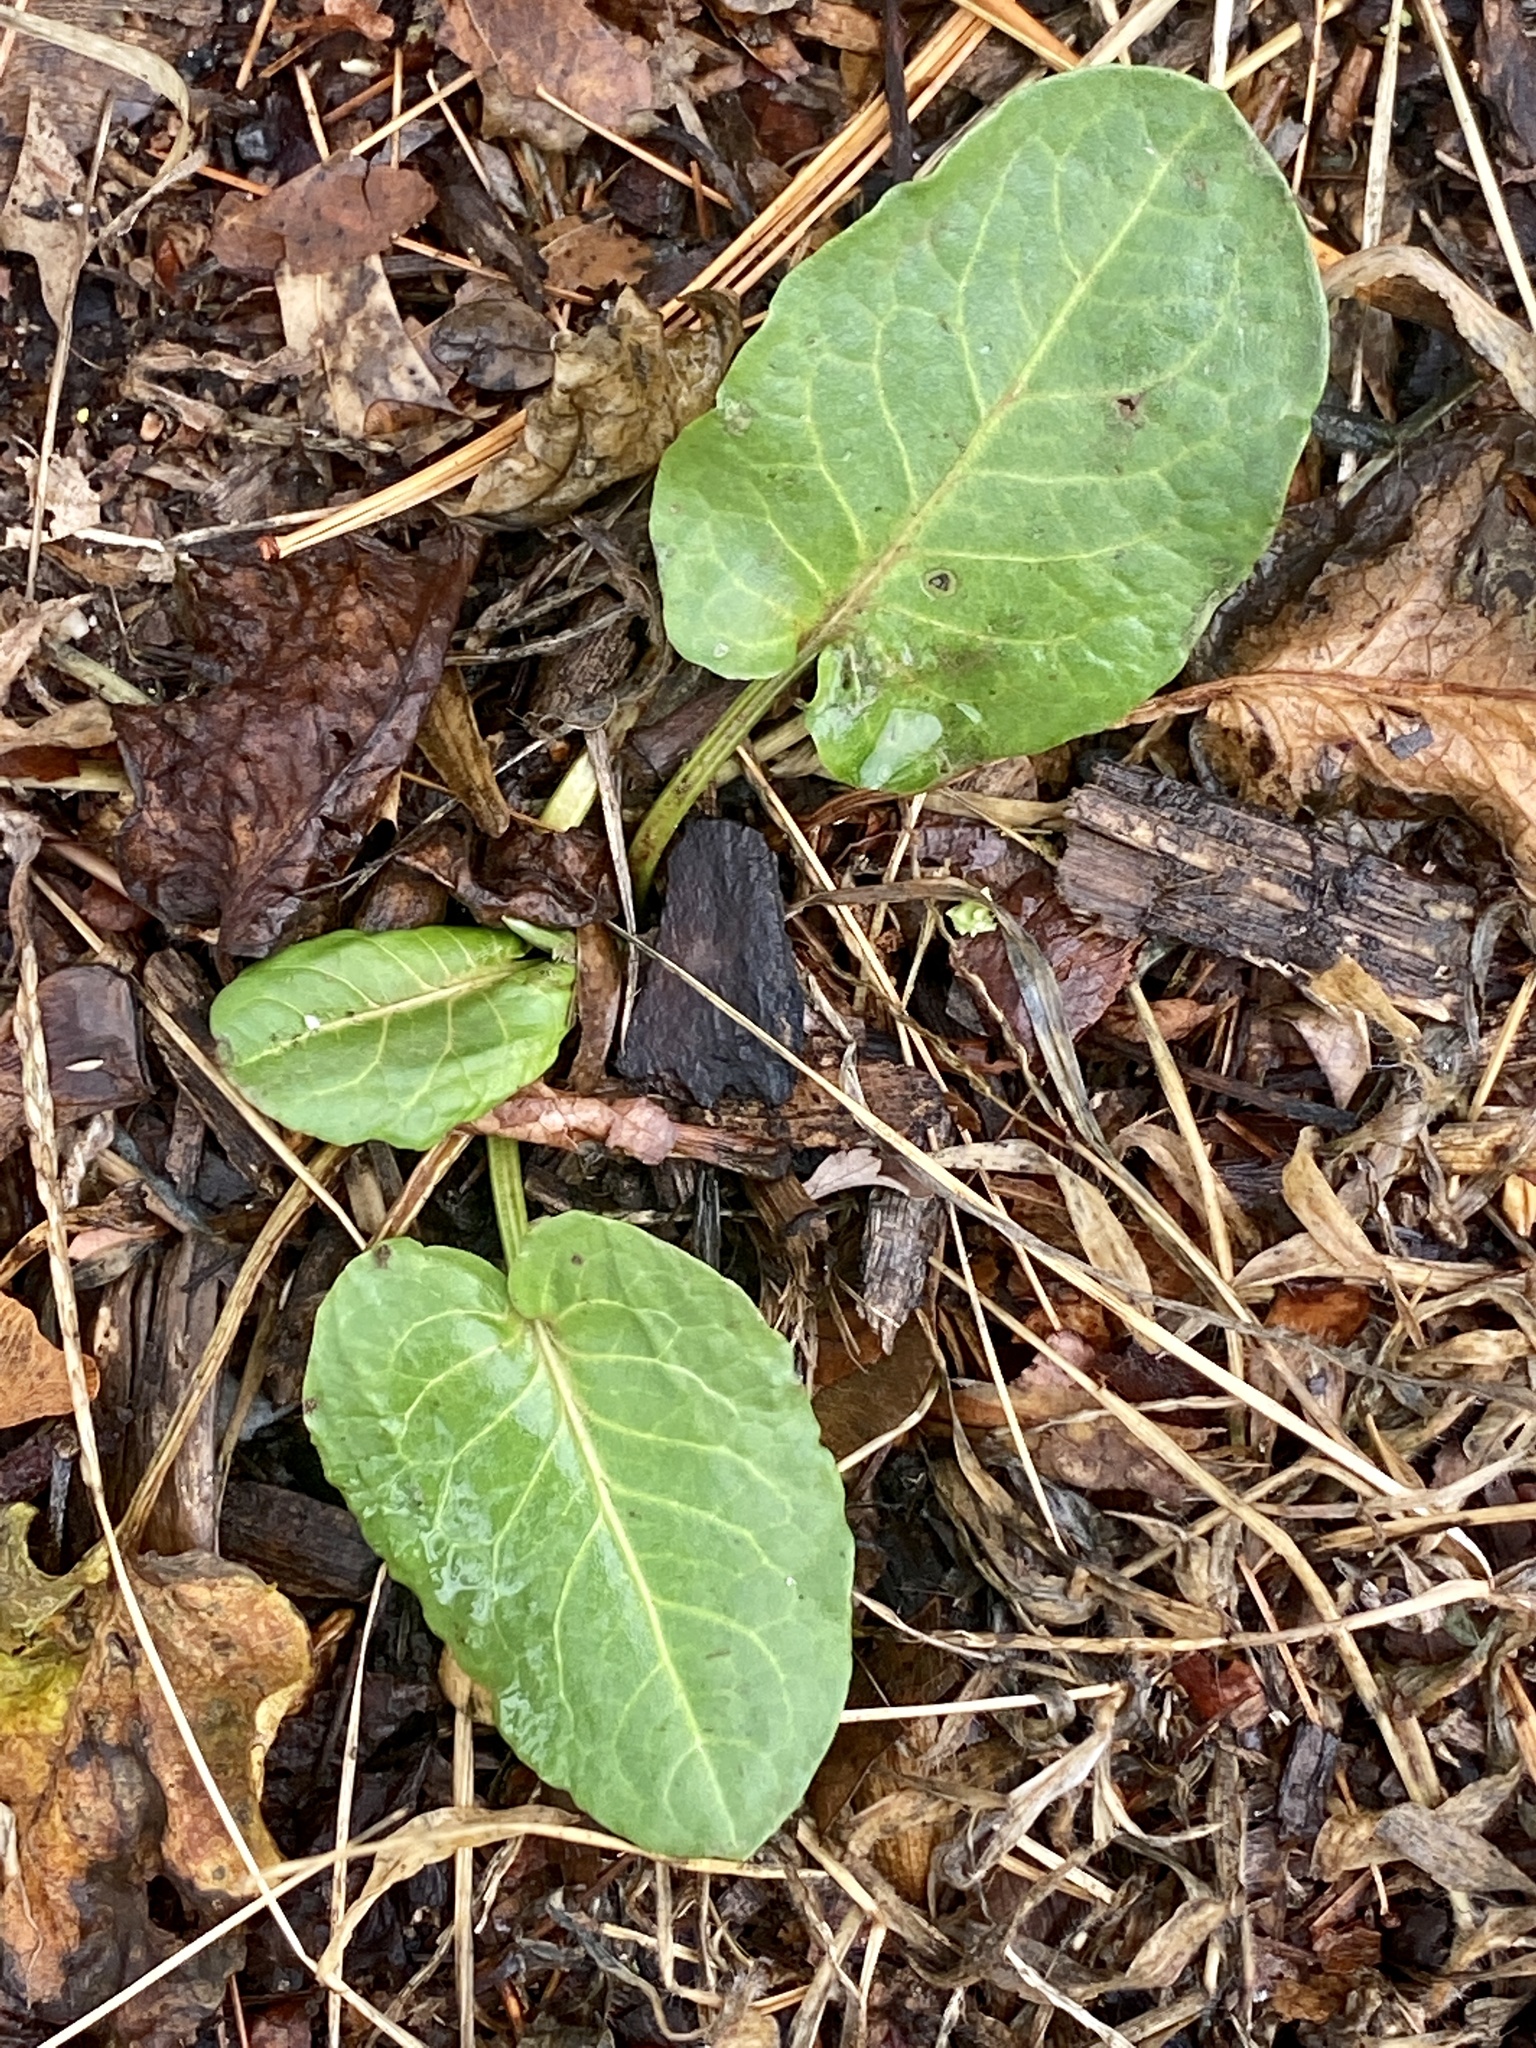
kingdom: Plantae
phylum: Tracheophyta
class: Magnoliopsida
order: Caryophyllales
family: Polygonaceae
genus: Rumex
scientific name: Rumex obtusifolius
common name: Bitter dock
